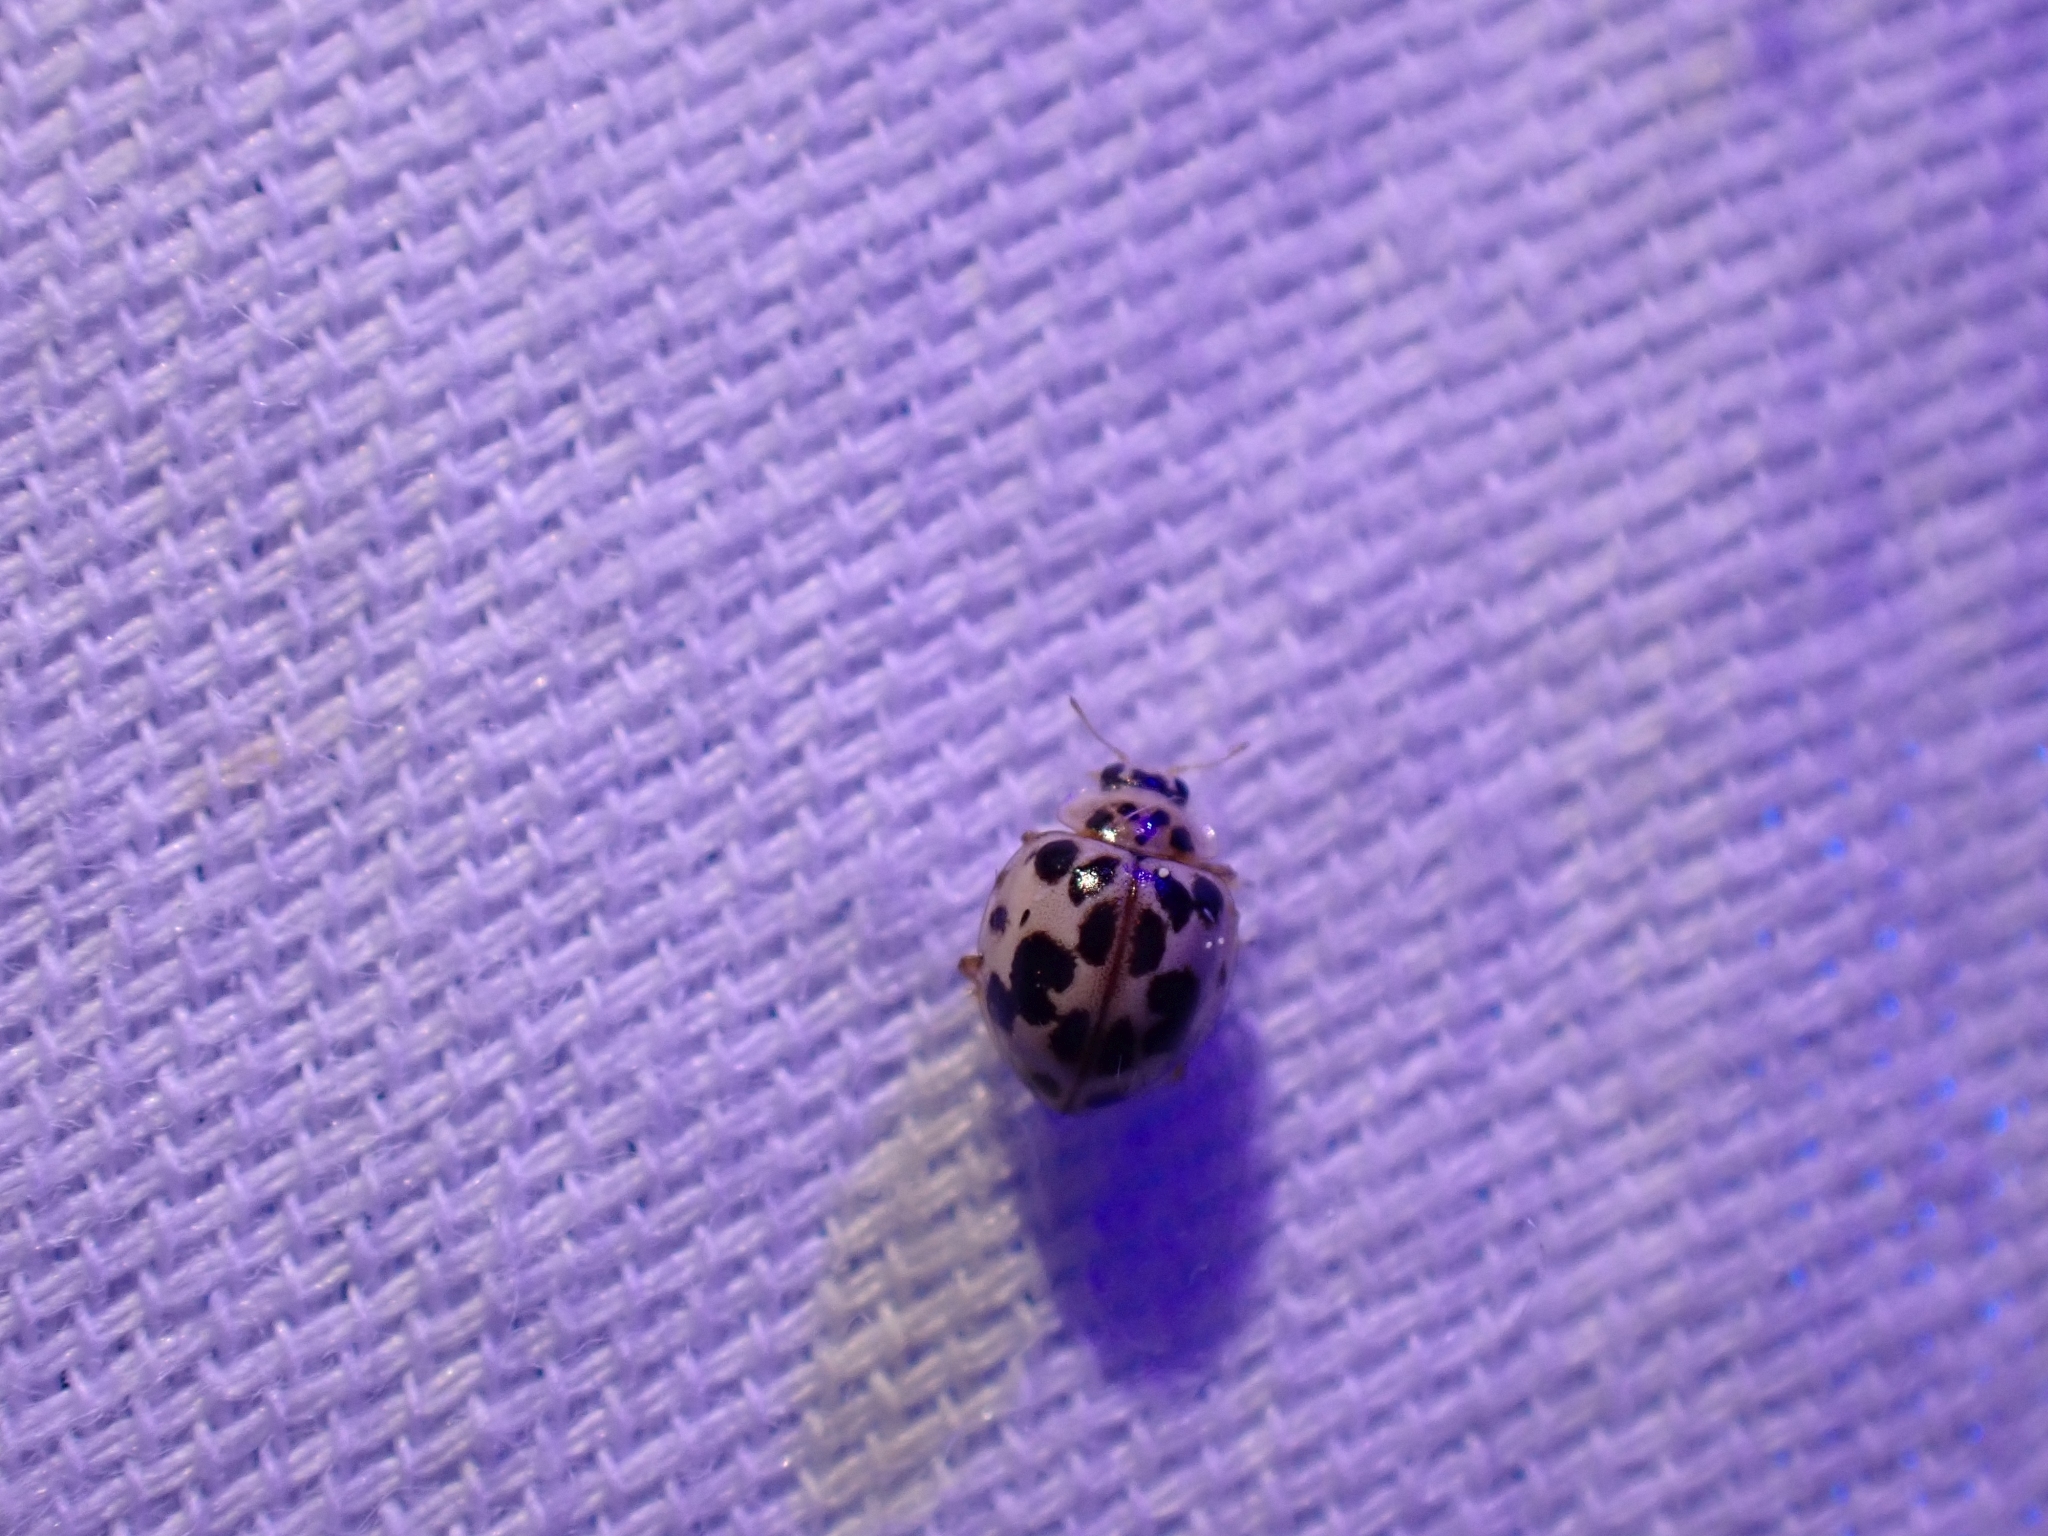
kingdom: Animalia
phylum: Arthropoda
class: Insecta
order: Coleoptera
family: Coccinellidae
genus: Psyllobora
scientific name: Psyllobora borealis
